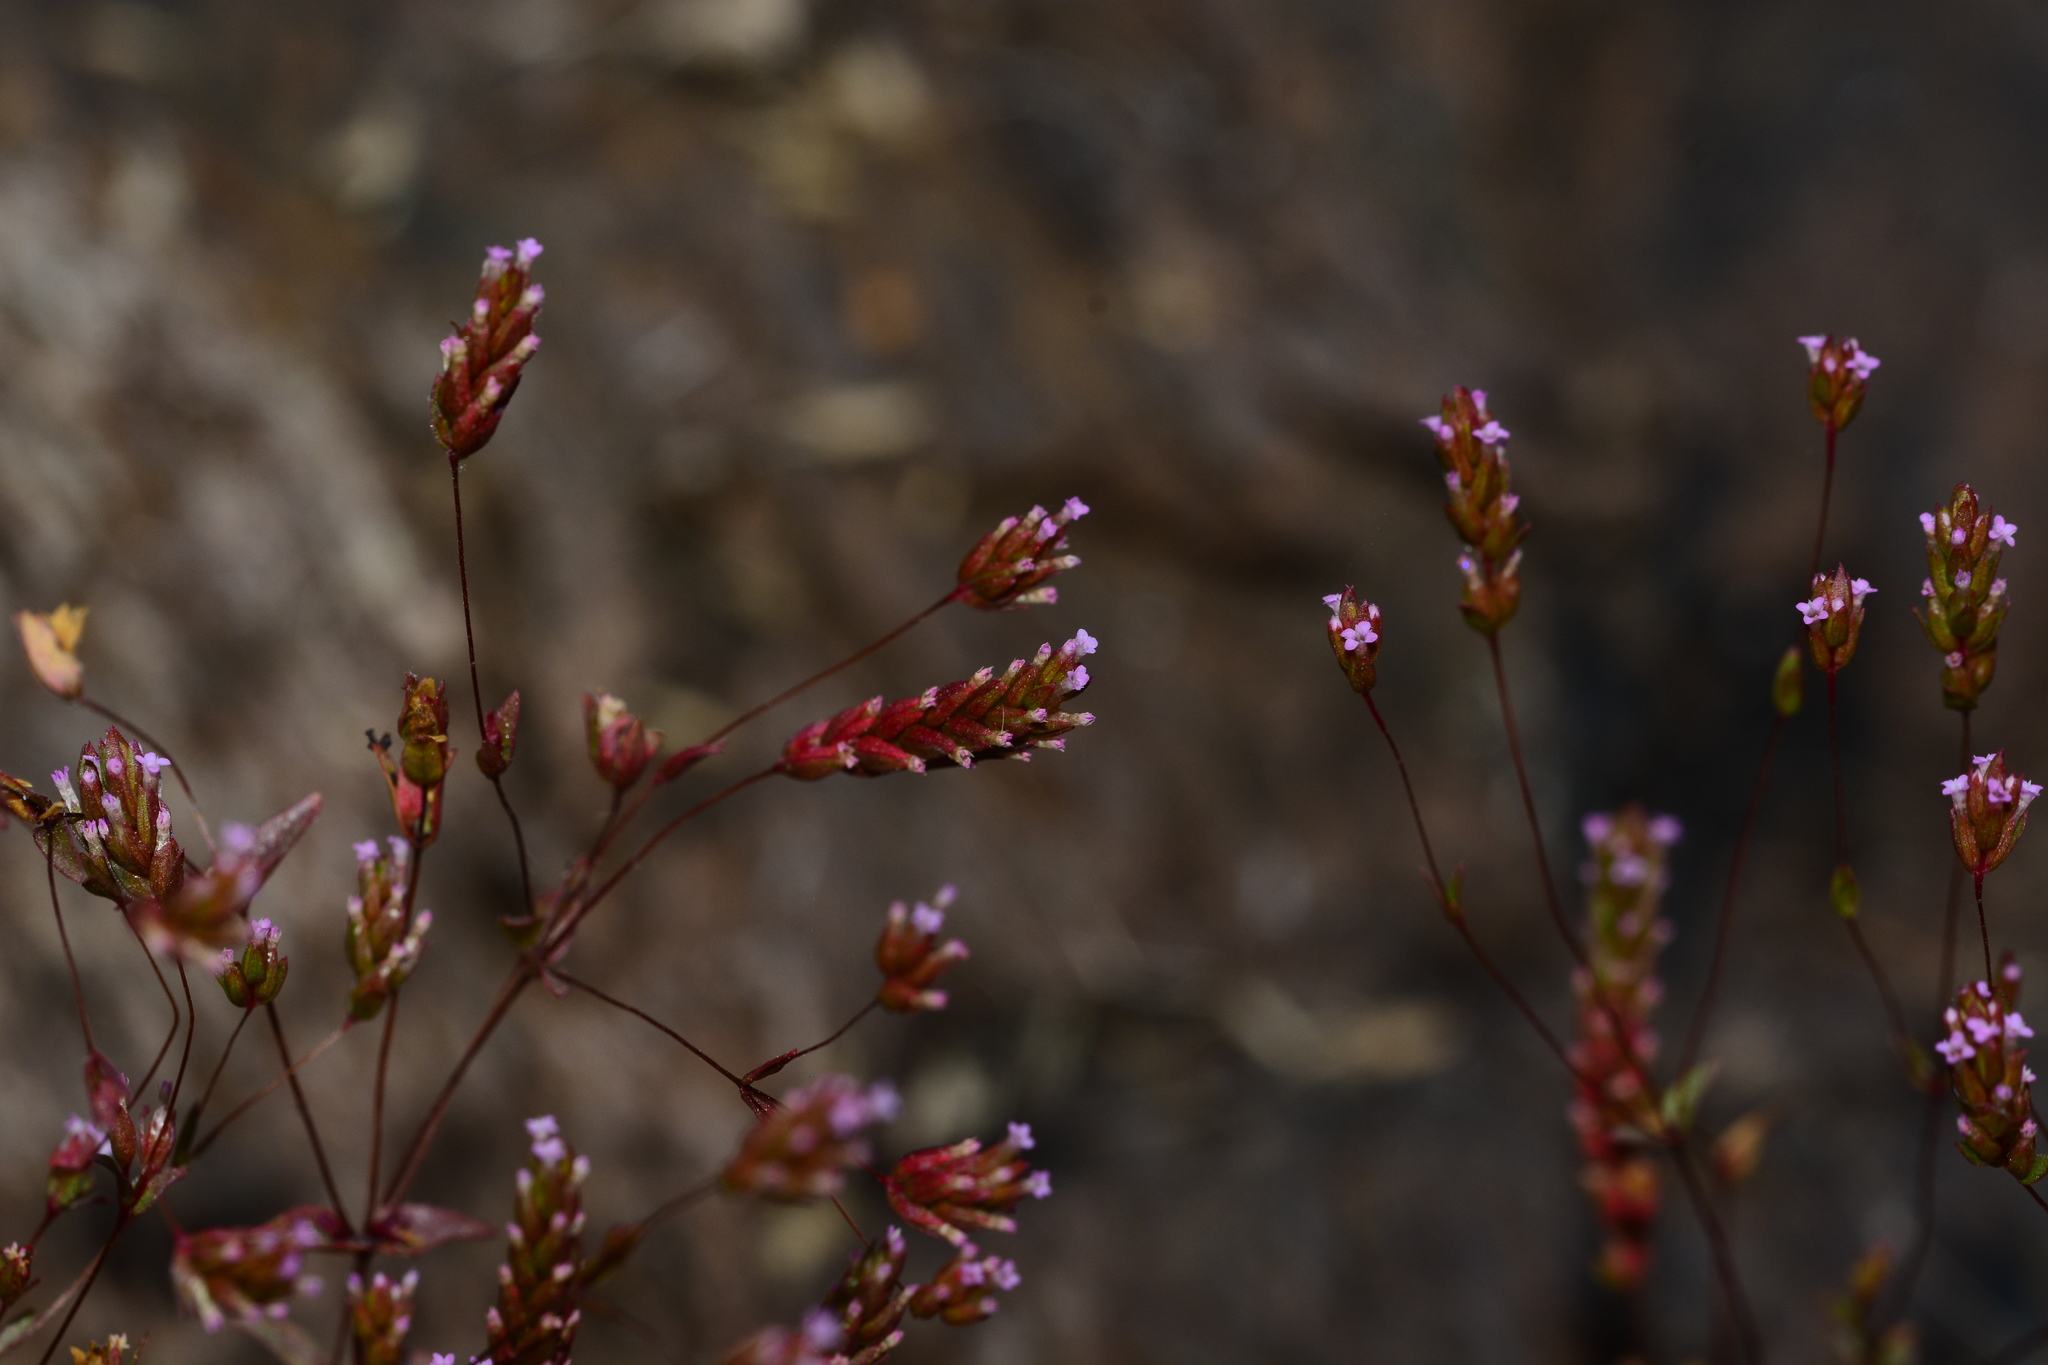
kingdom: Plantae
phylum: Tracheophyta
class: Magnoliopsida
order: Myrtales
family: Lythraceae
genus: Rotala
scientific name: Rotala
